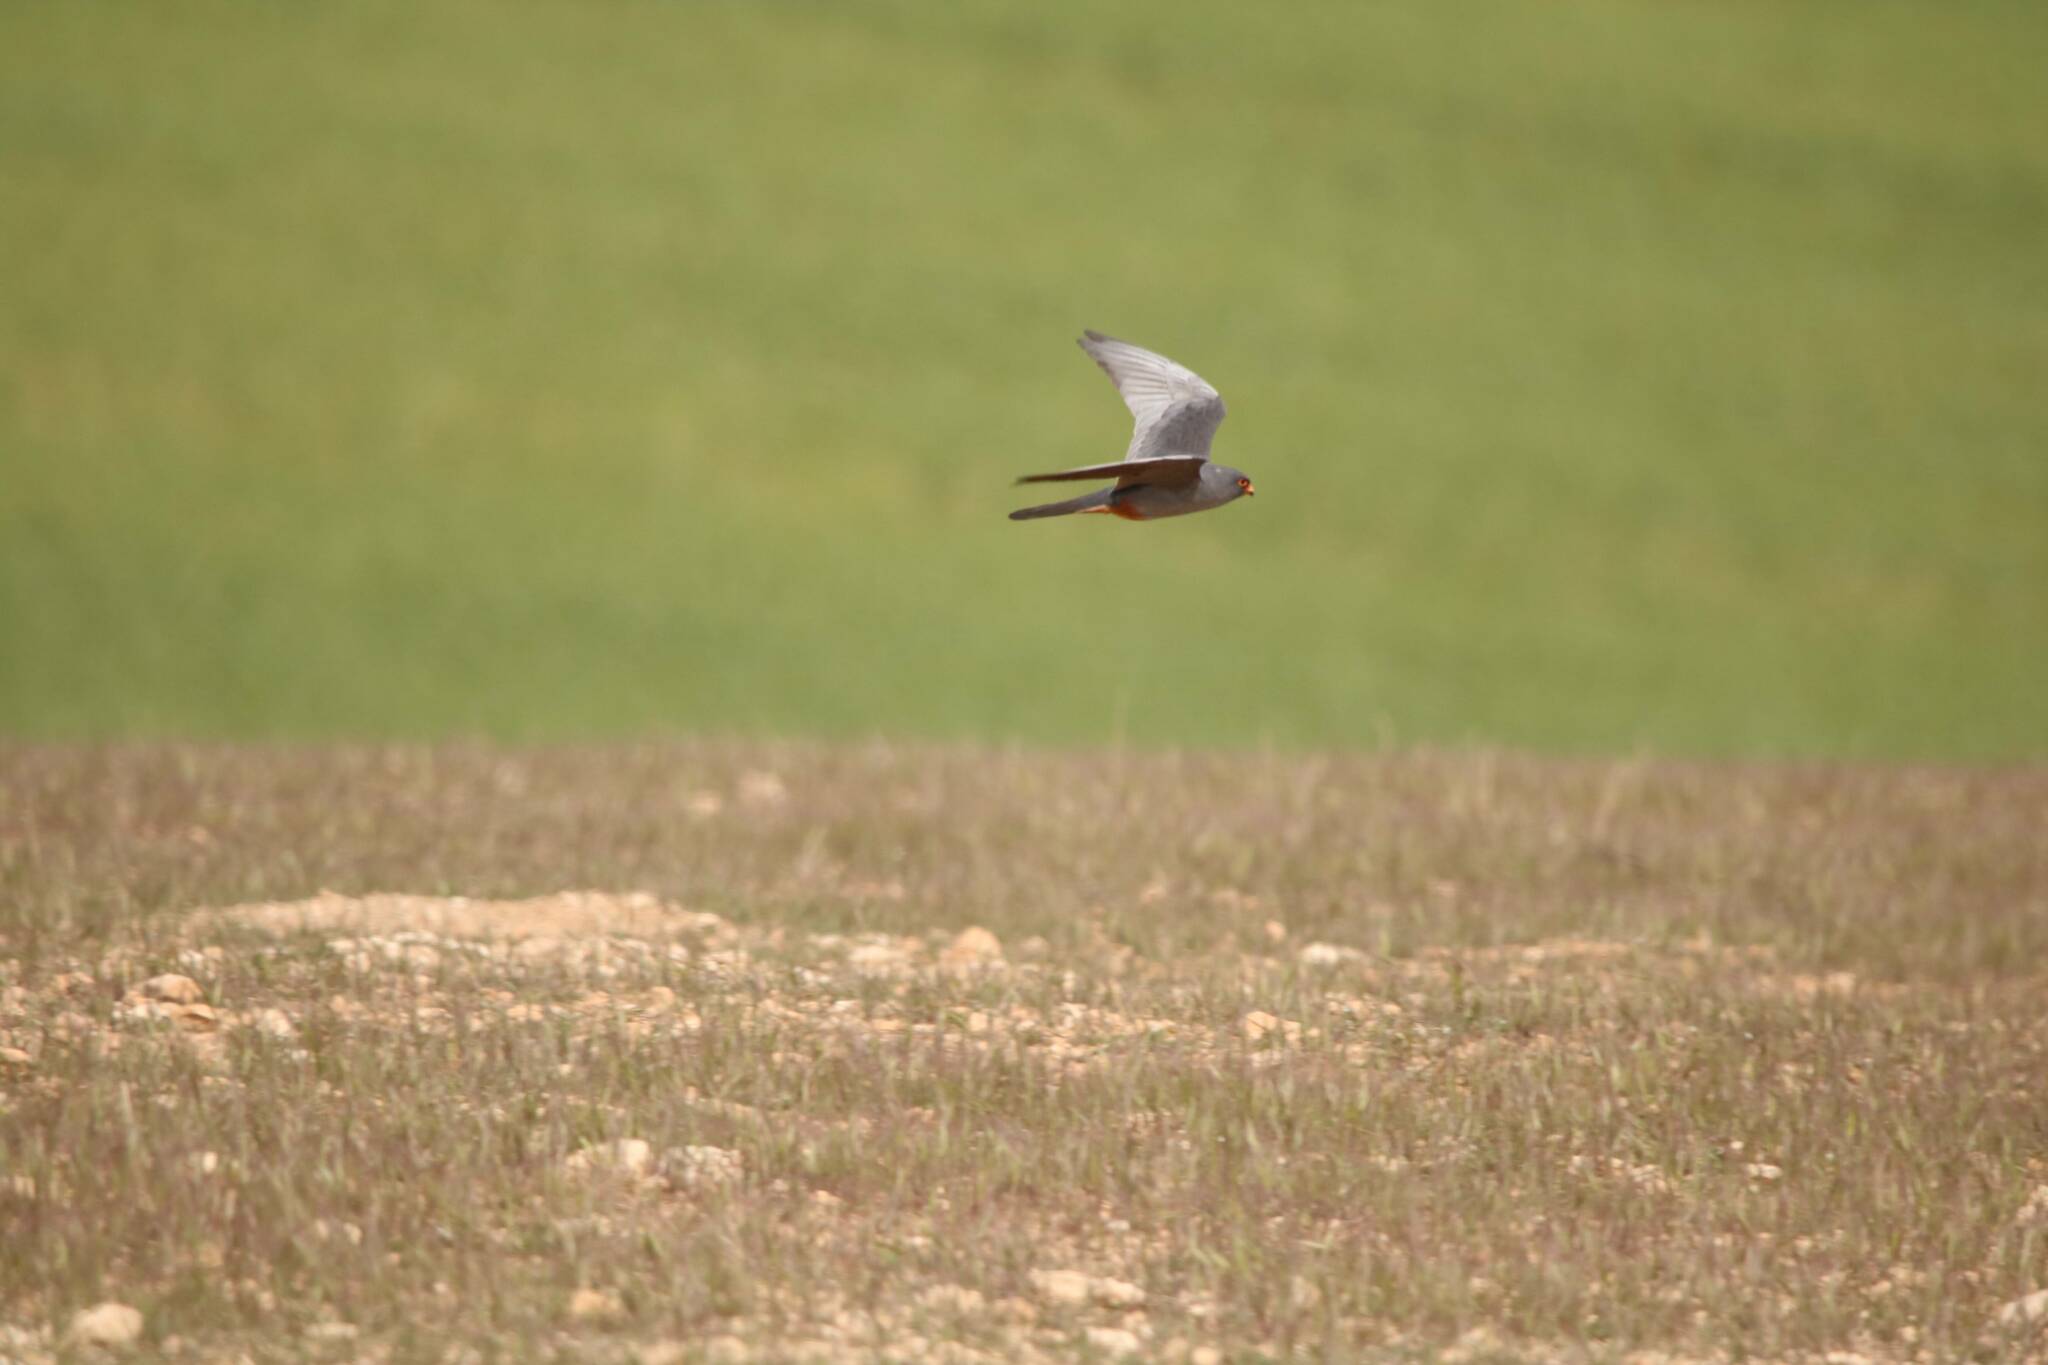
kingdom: Animalia
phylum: Chordata
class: Aves
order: Falconiformes
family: Falconidae
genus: Falco
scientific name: Falco vespertinus
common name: Red-footed falcon
